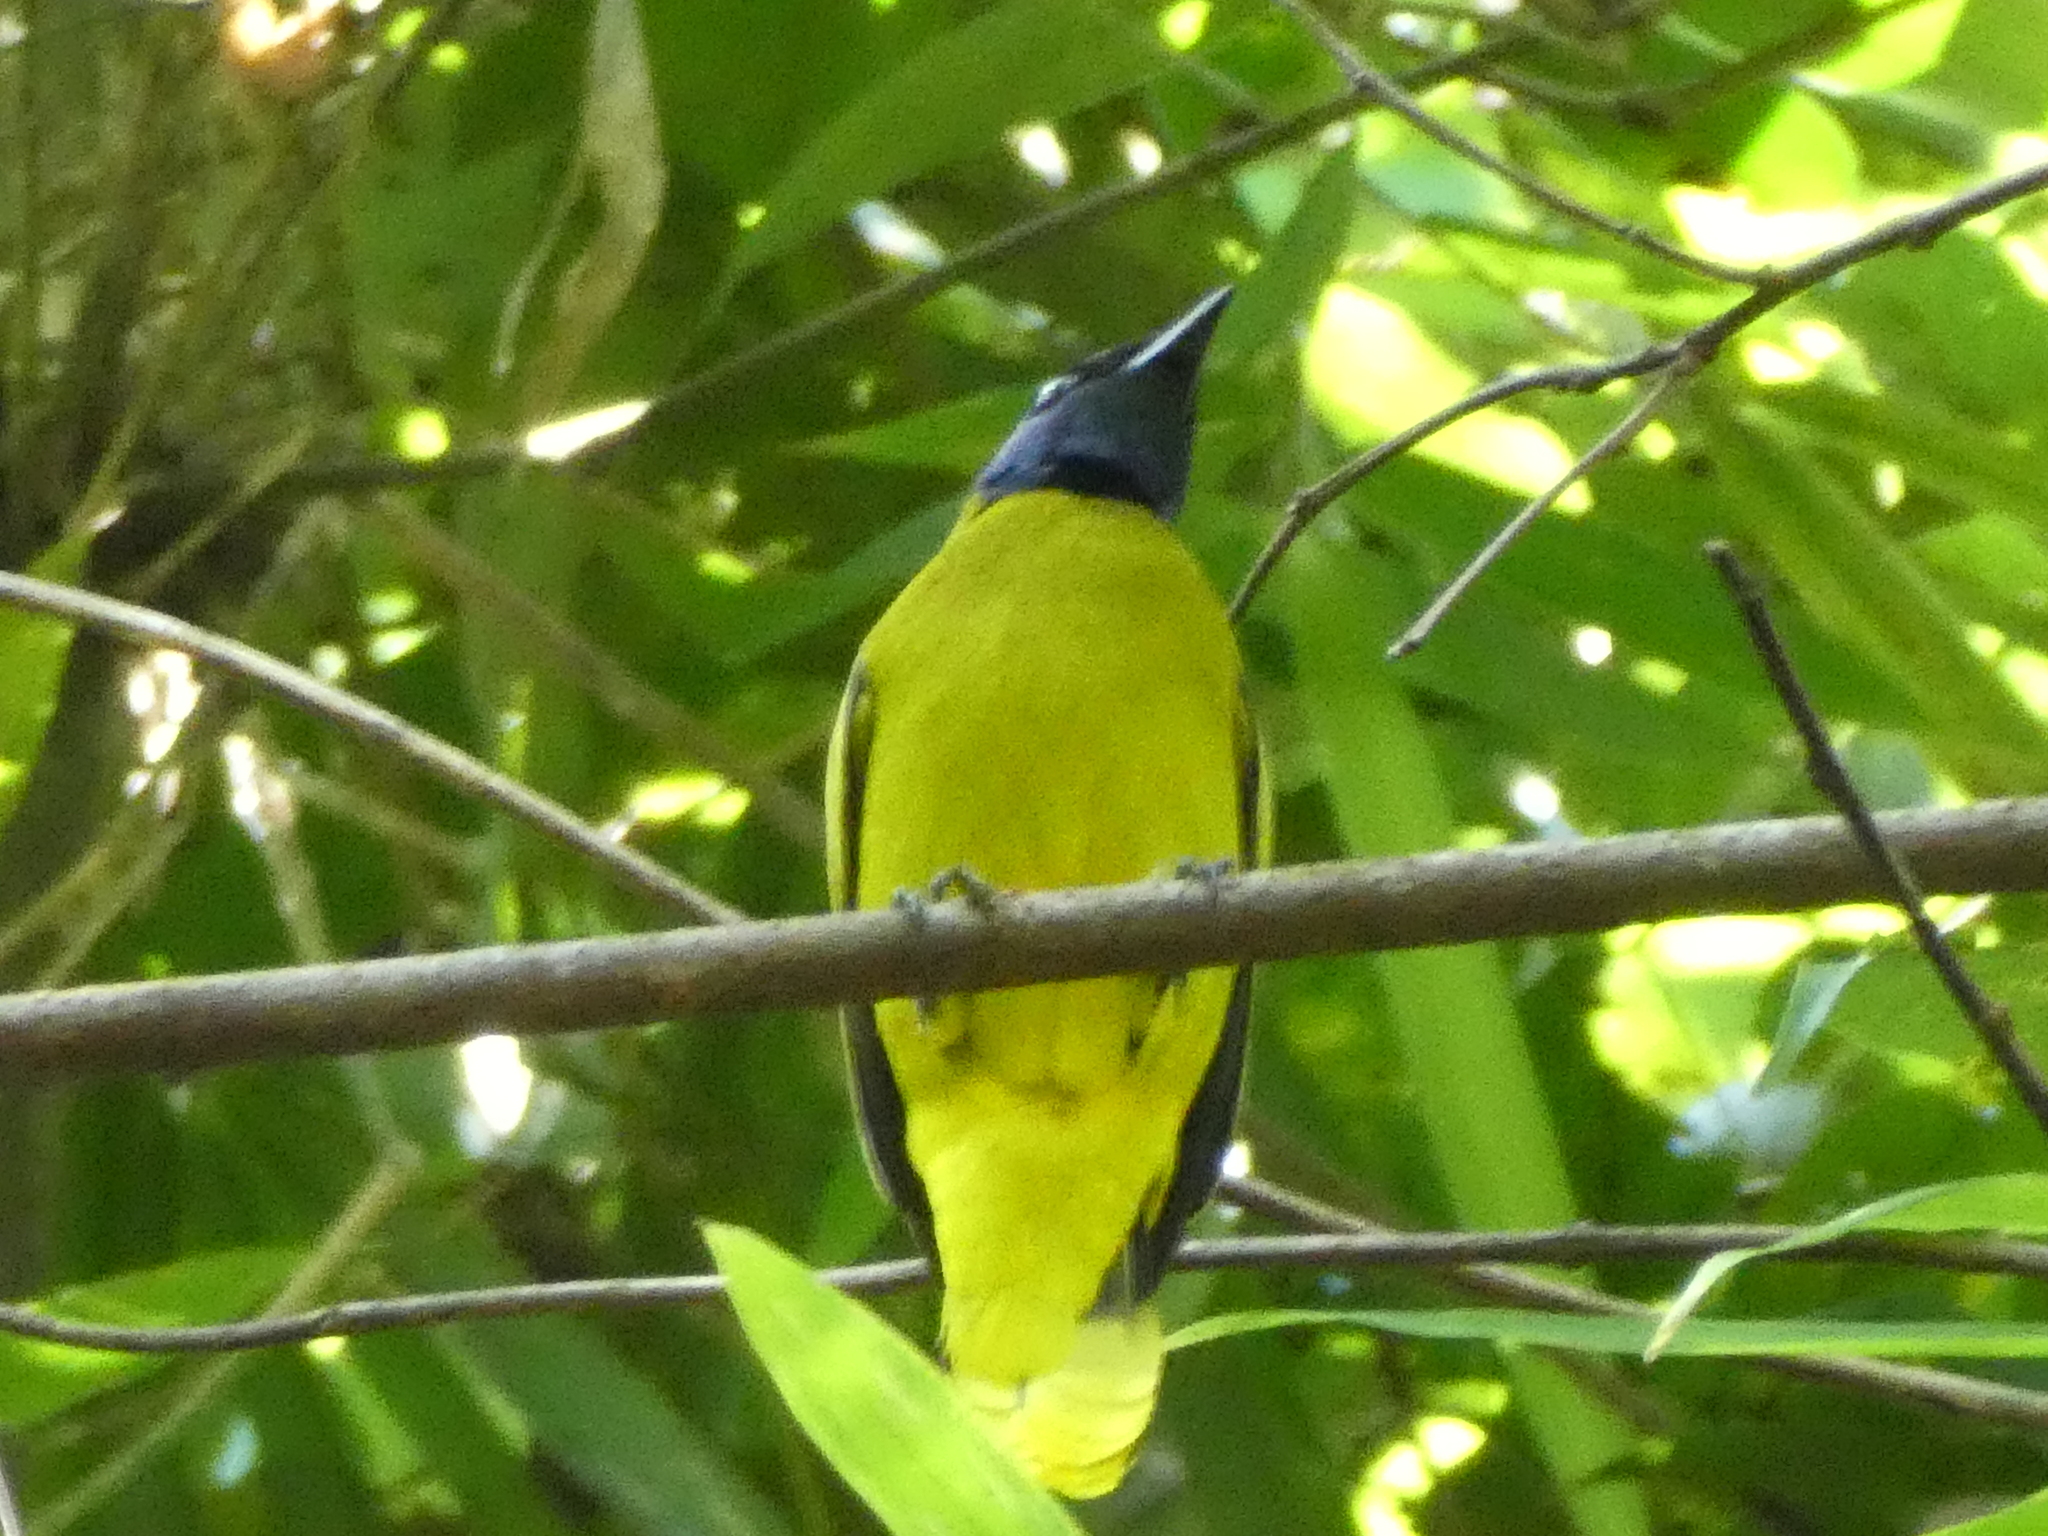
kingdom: Animalia
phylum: Chordata
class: Aves
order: Passeriformes
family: Pycnonotidae
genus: Microtarsus
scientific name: Microtarsus
